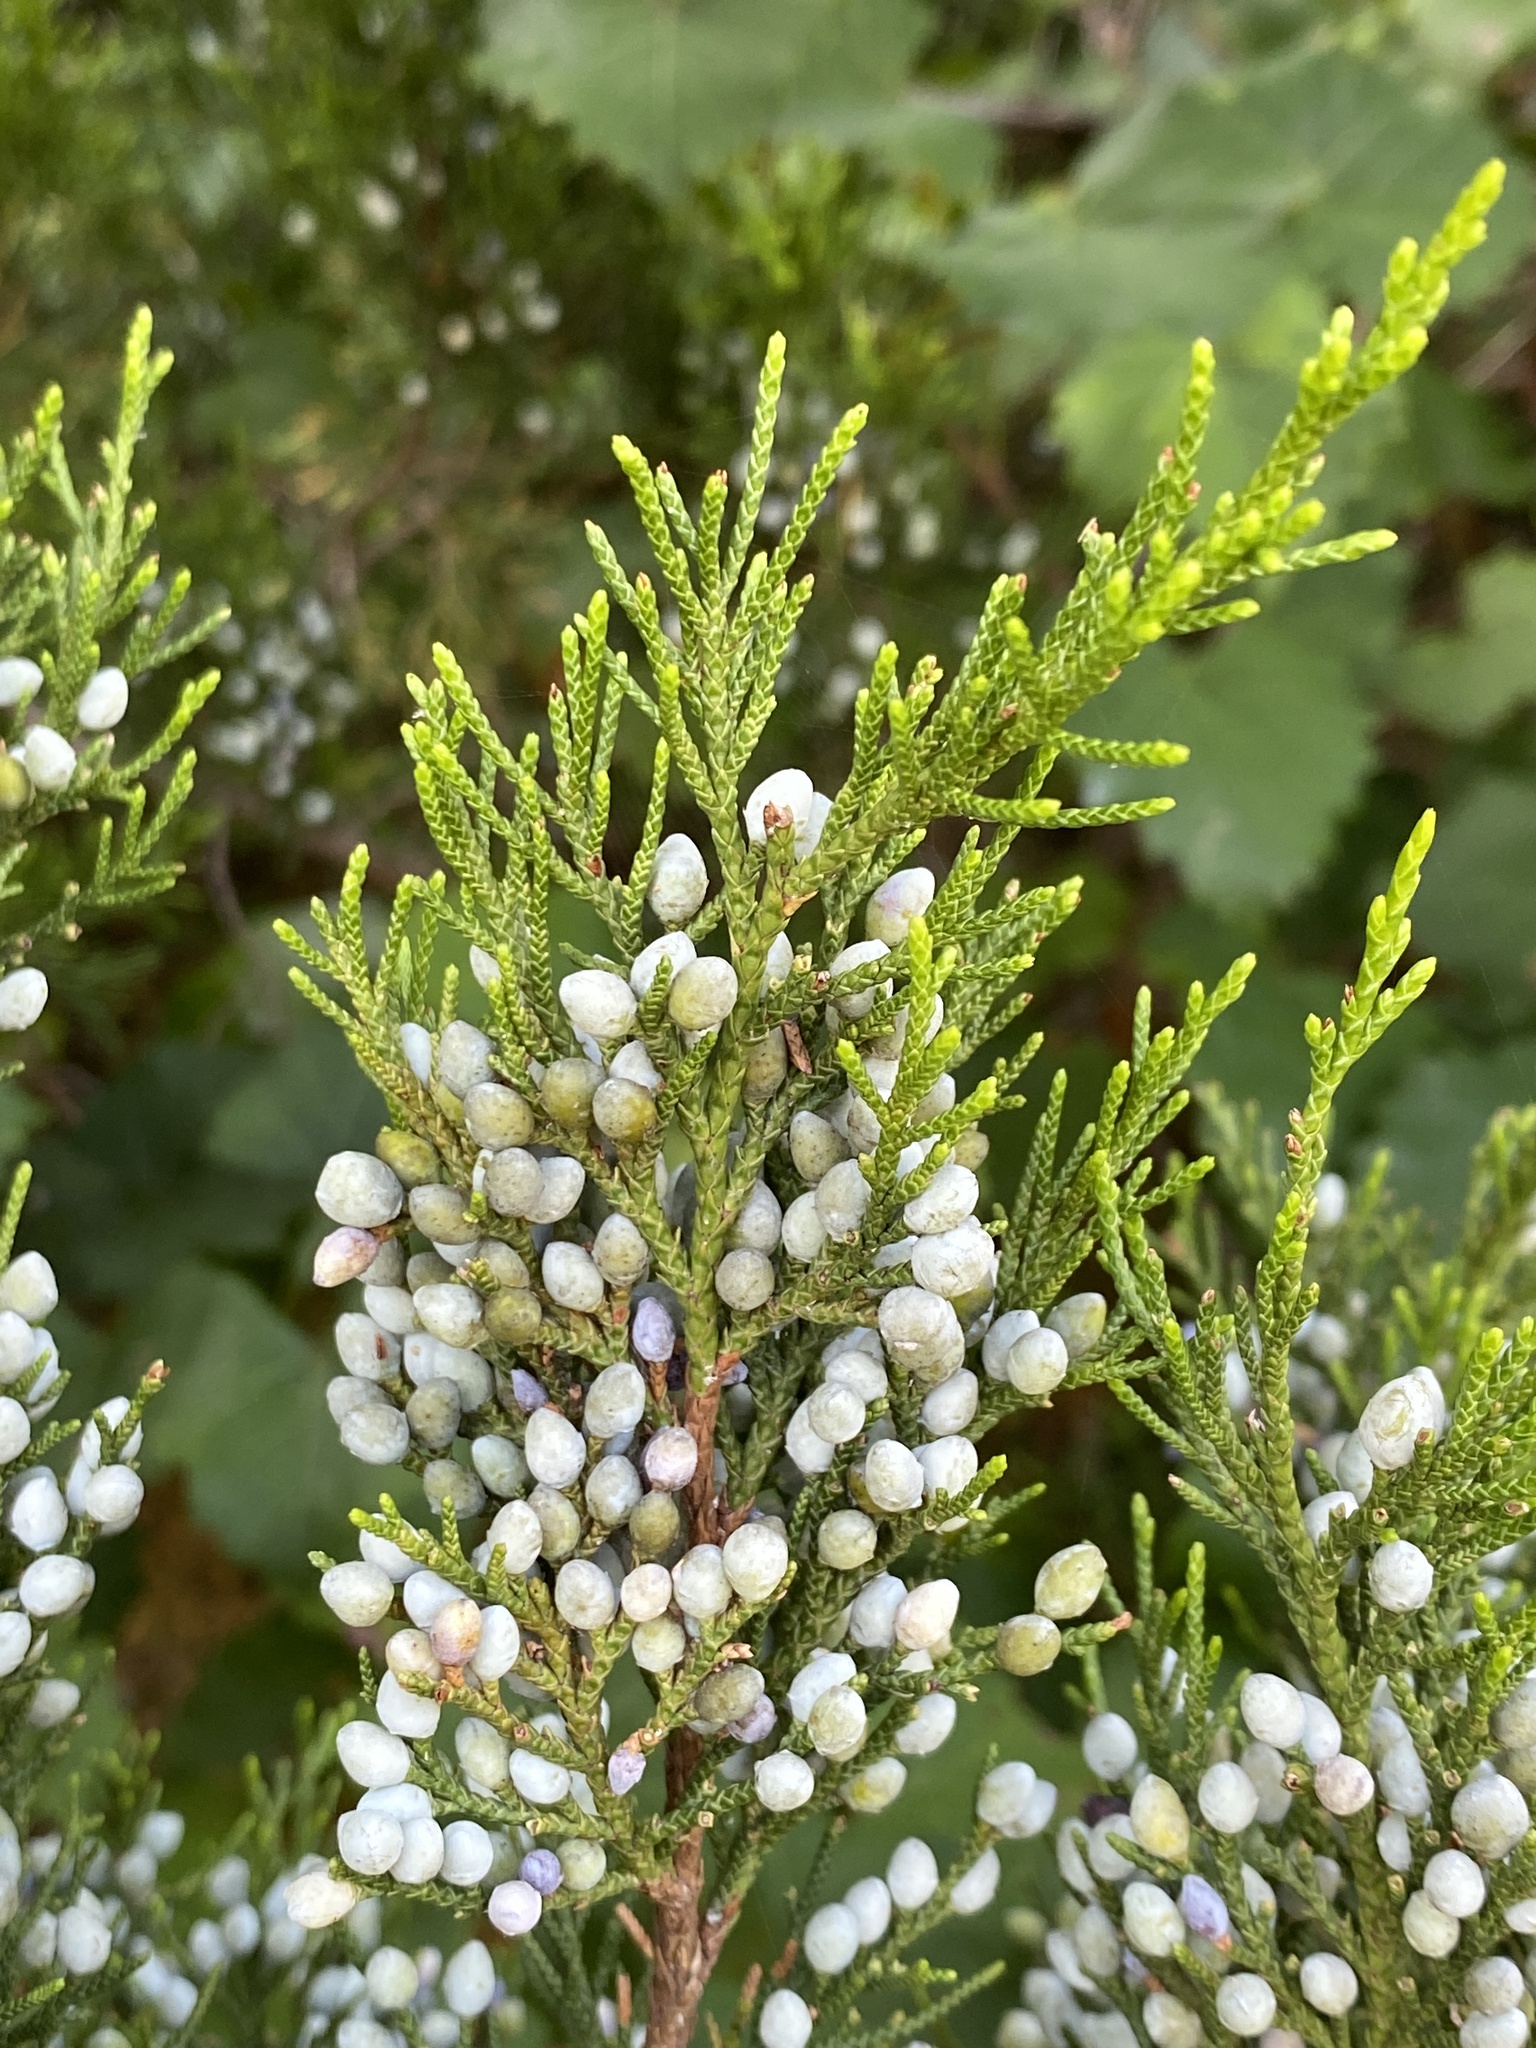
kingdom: Plantae
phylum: Tracheophyta
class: Pinopsida
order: Pinales
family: Cupressaceae
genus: Juniperus
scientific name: Juniperus virginiana
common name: Red juniper
